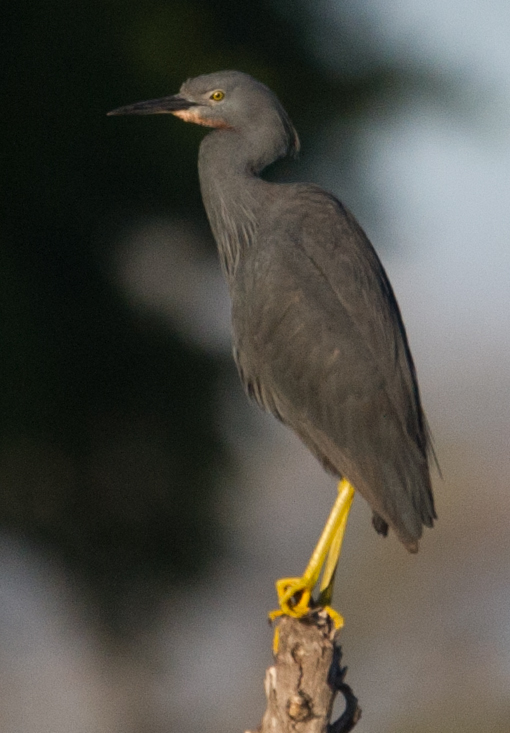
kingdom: Animalia
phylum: Chordata
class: Aves
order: Pelecaniformes
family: Ardeidae
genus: Egretta
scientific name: Egretta vinaceigula
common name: Slaty egret
